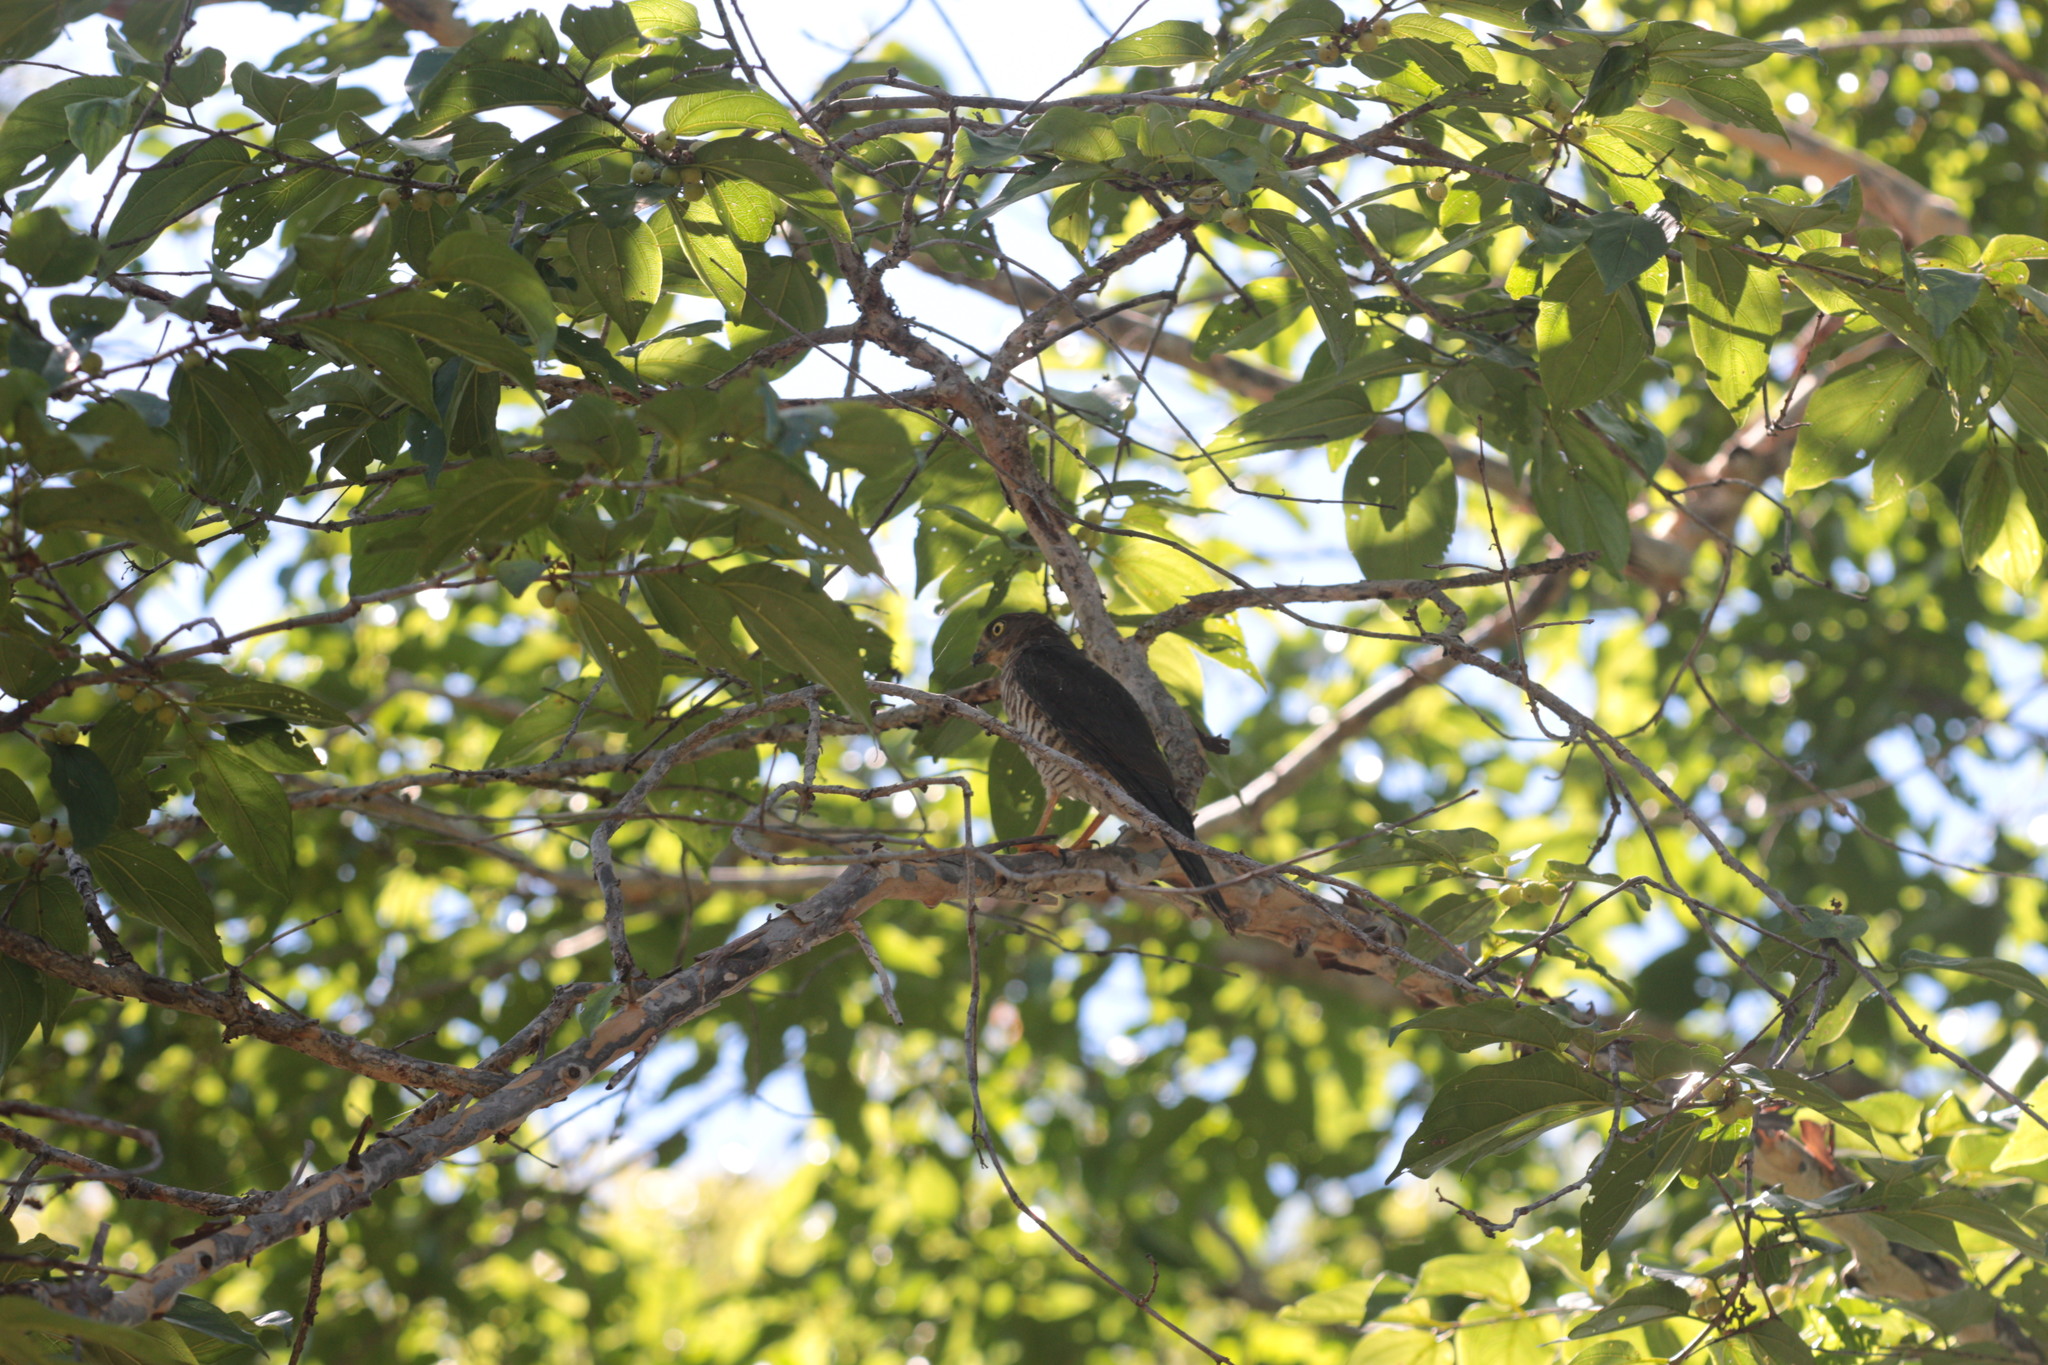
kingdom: Animalia
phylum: Chordata
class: Aves
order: Accipitriformes
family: Accipitridae
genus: Accipiter
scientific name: Accipiter francesiae
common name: Frances's sparrowhawk
